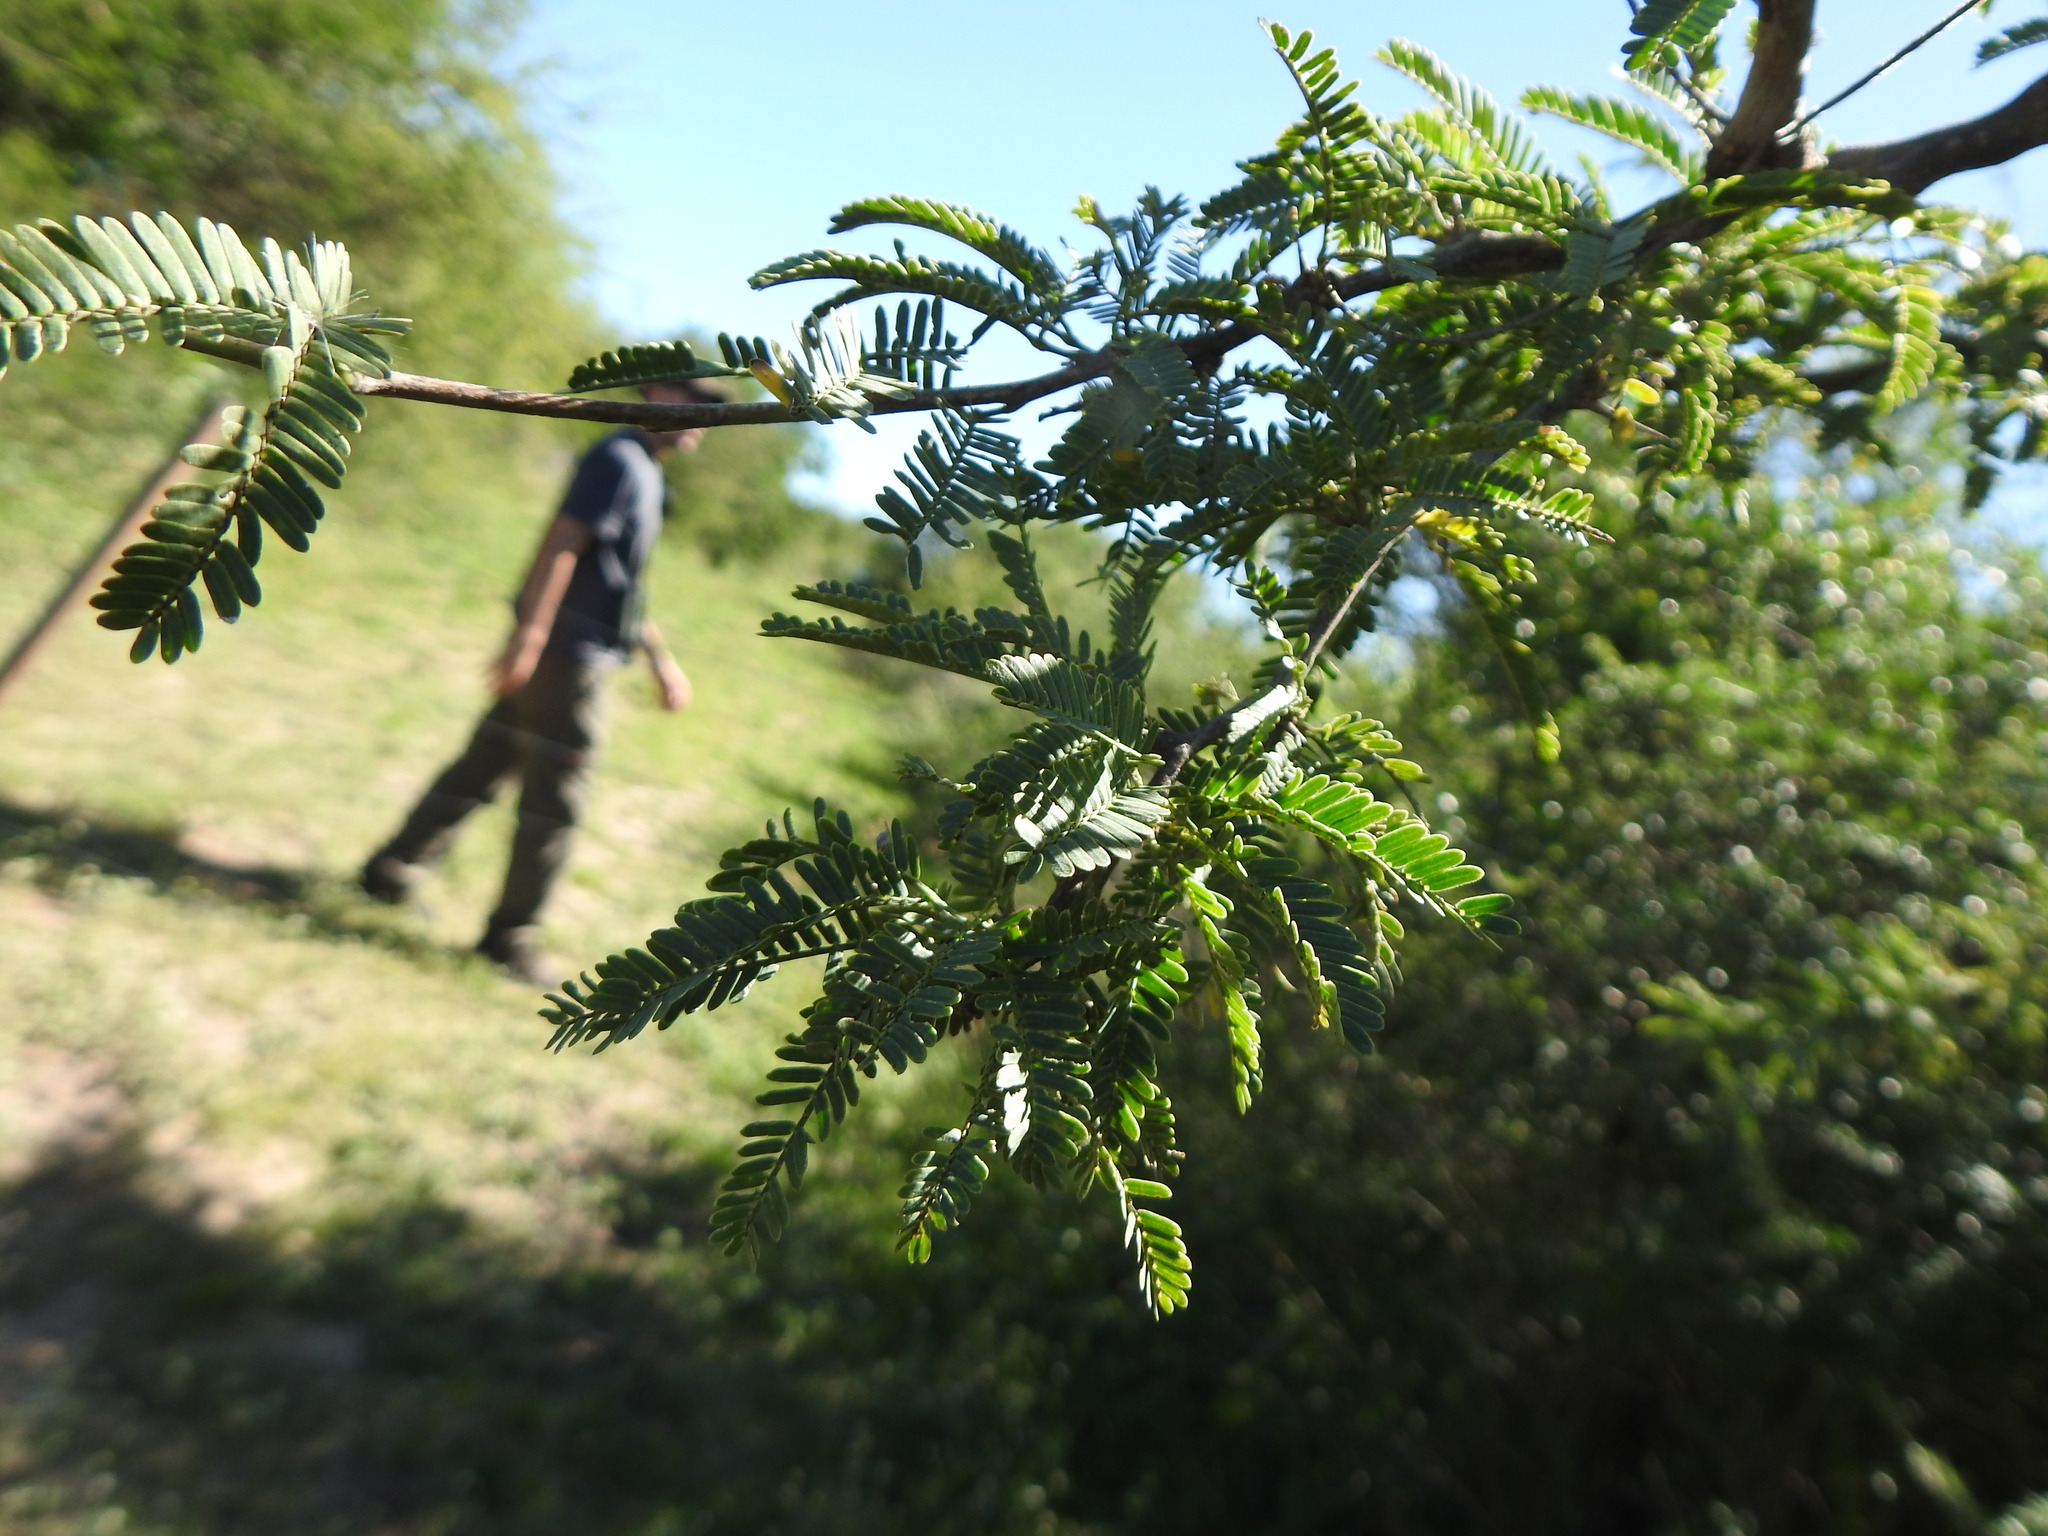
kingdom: Plantae
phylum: Tracheophyta
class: Magnoliopsida
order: Fabales
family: Fabaceae
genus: Prosopis
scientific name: Prosopis affinis
